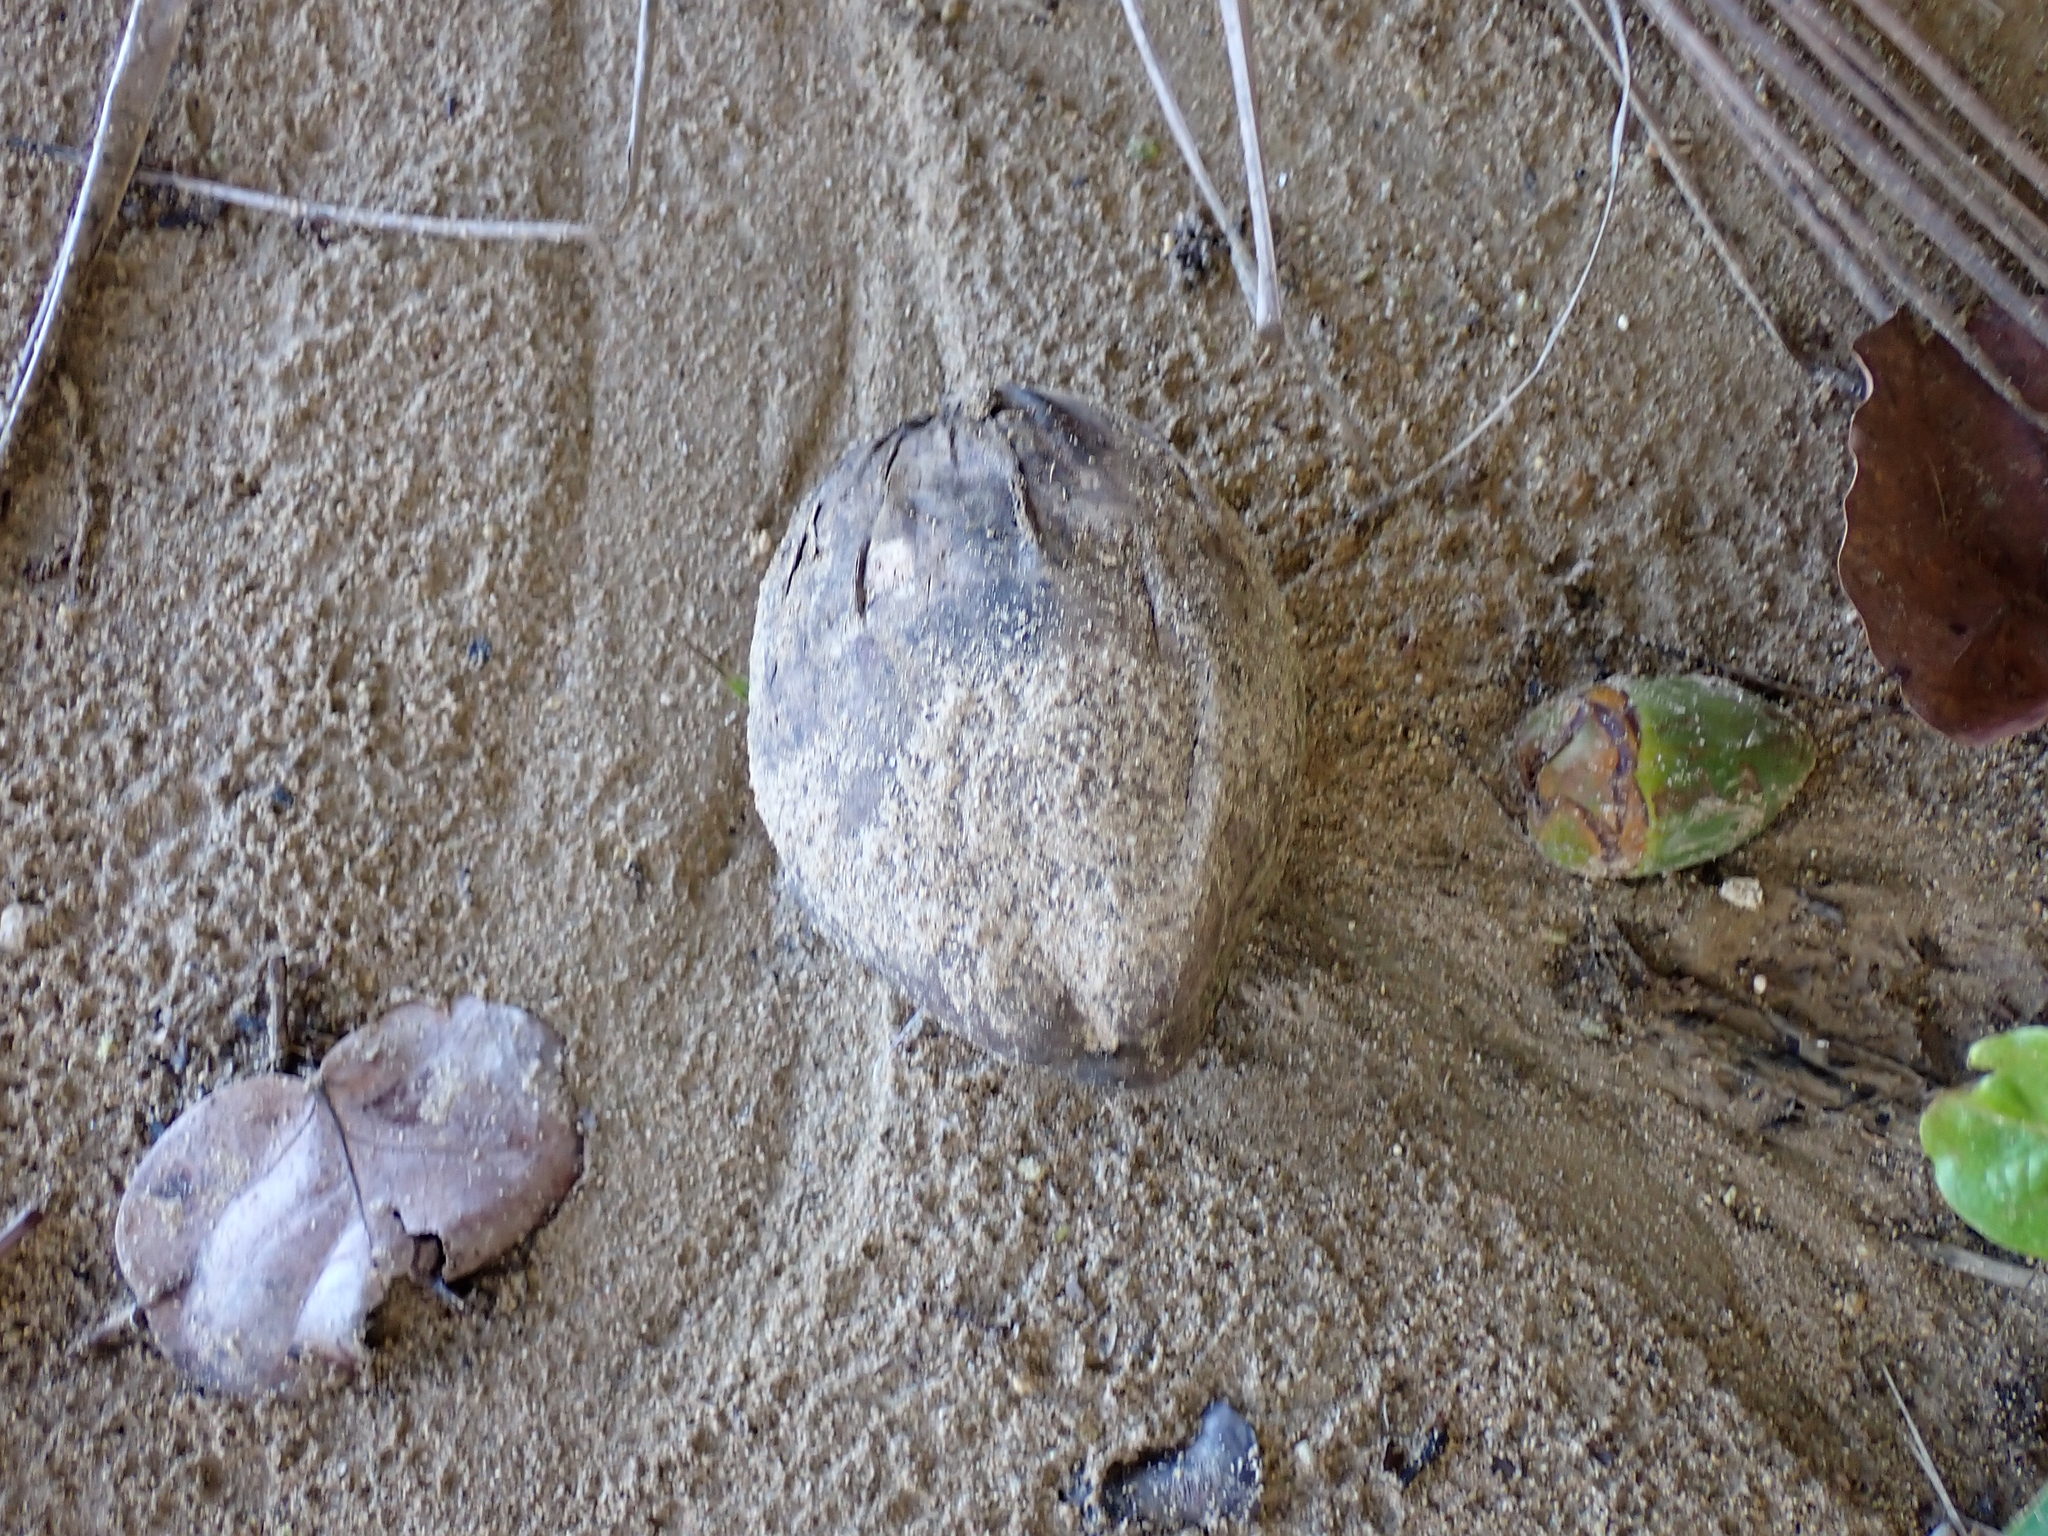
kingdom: Plantae
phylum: Tracheophyta
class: Liliopsida
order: Arecales
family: Arecaceae
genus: Cocos
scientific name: Cocos nucifera
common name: Coconut palm
